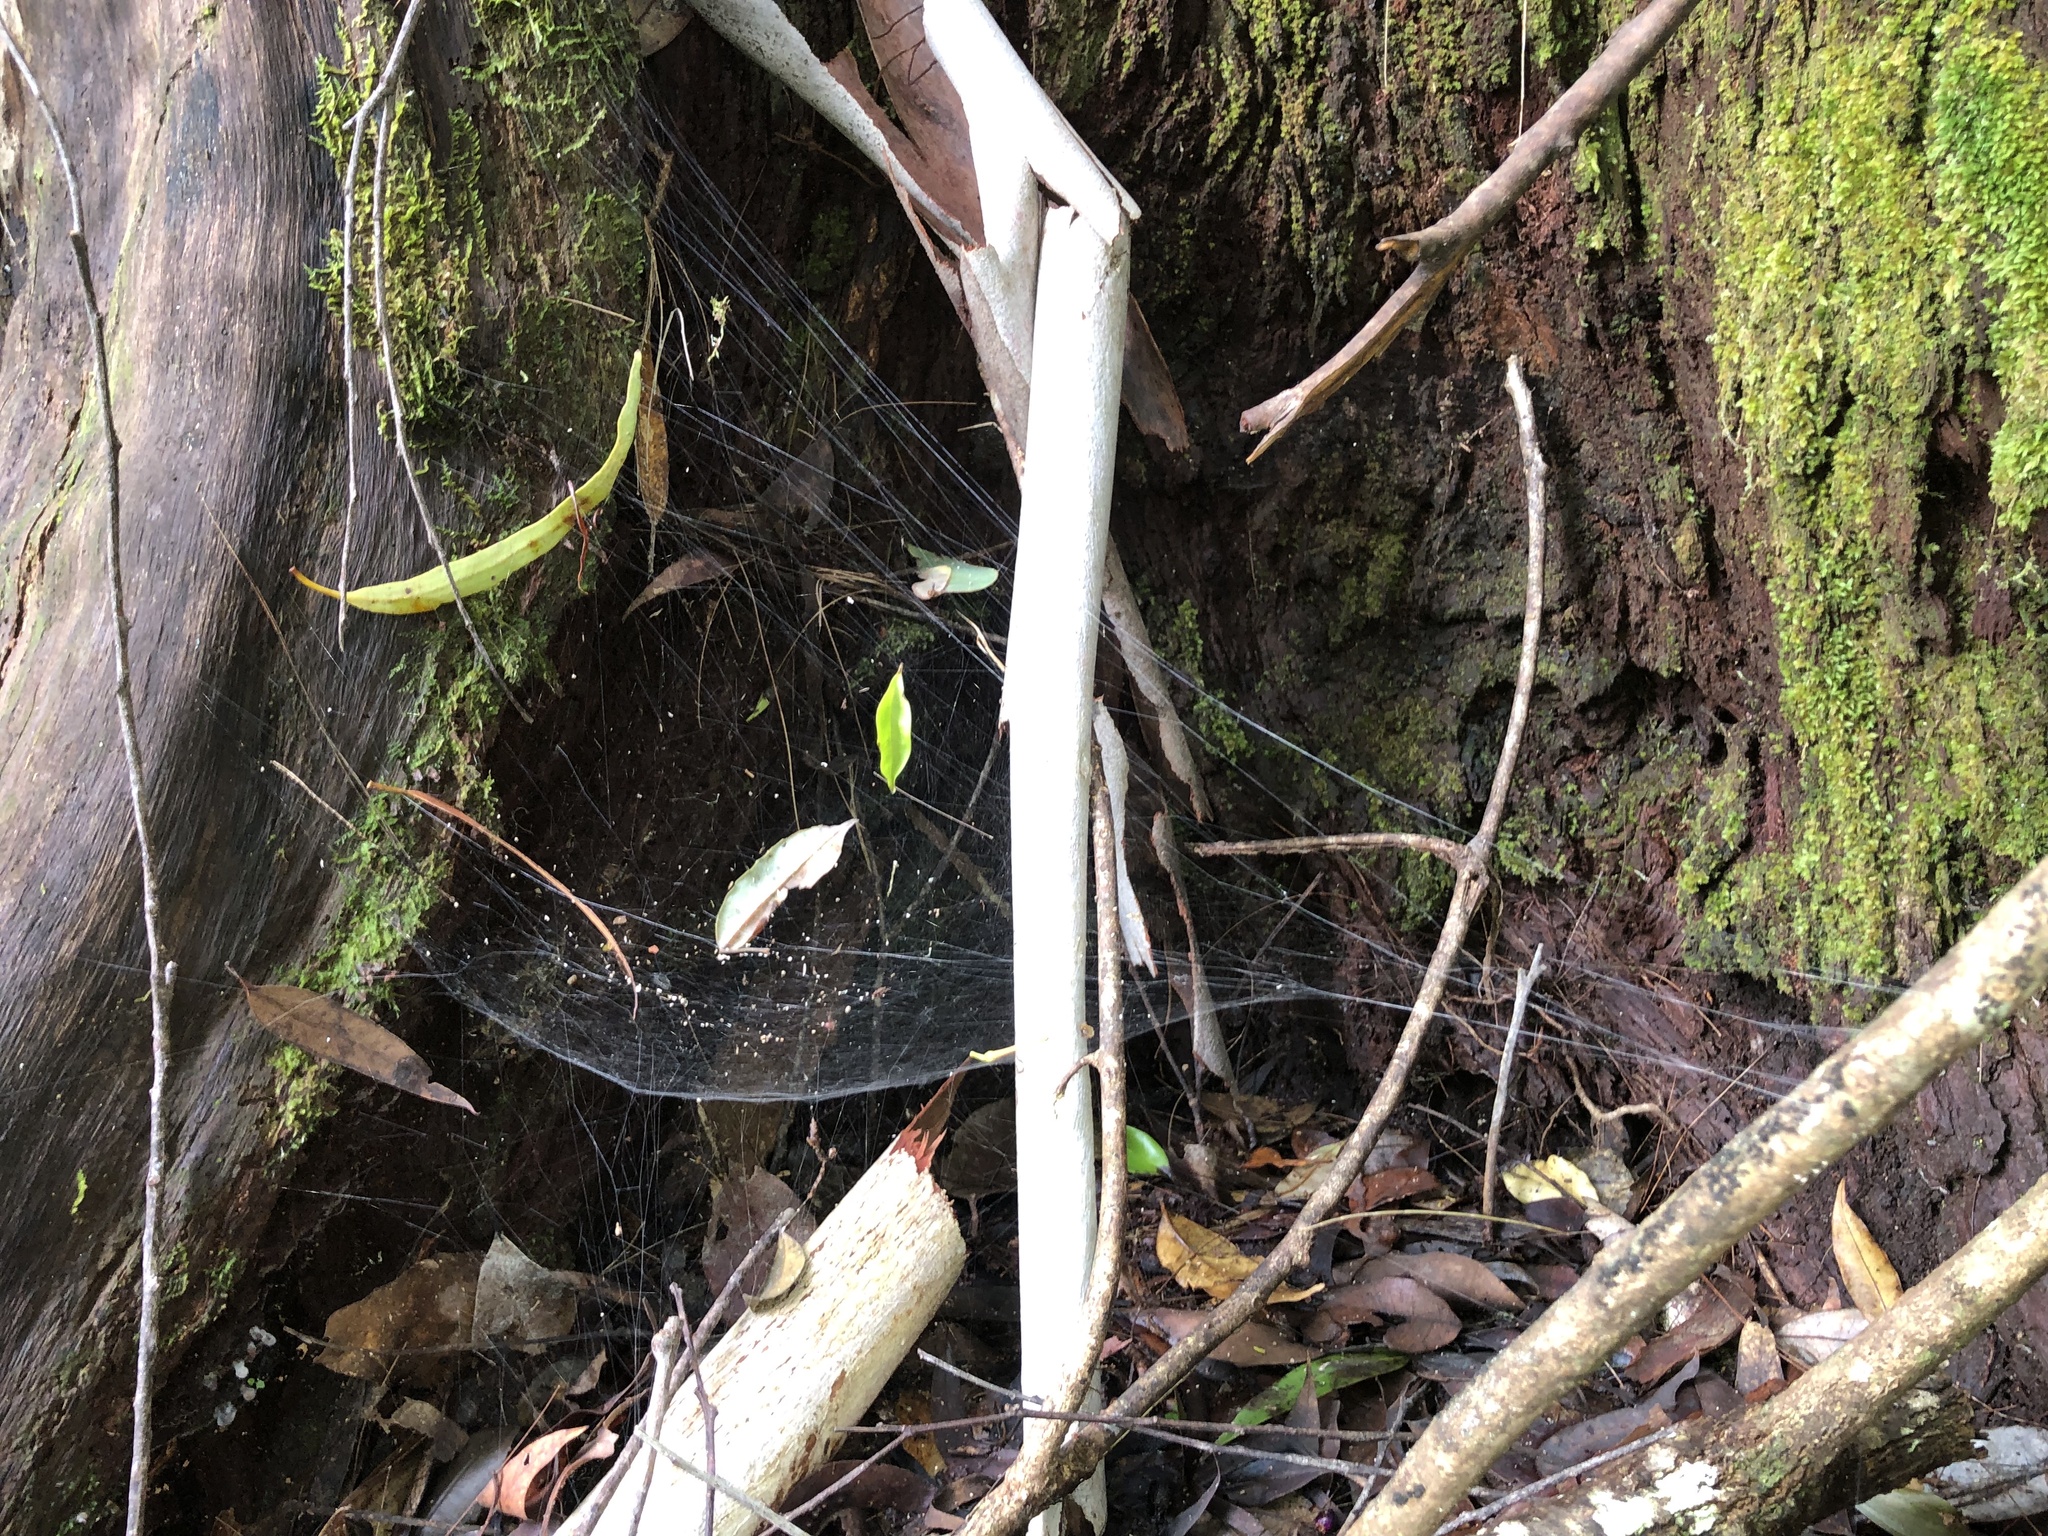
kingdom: Animalia
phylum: Arthropoda
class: Arachnida
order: Araneae
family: Desidae
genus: Corasoides
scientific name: Corasoides australis
